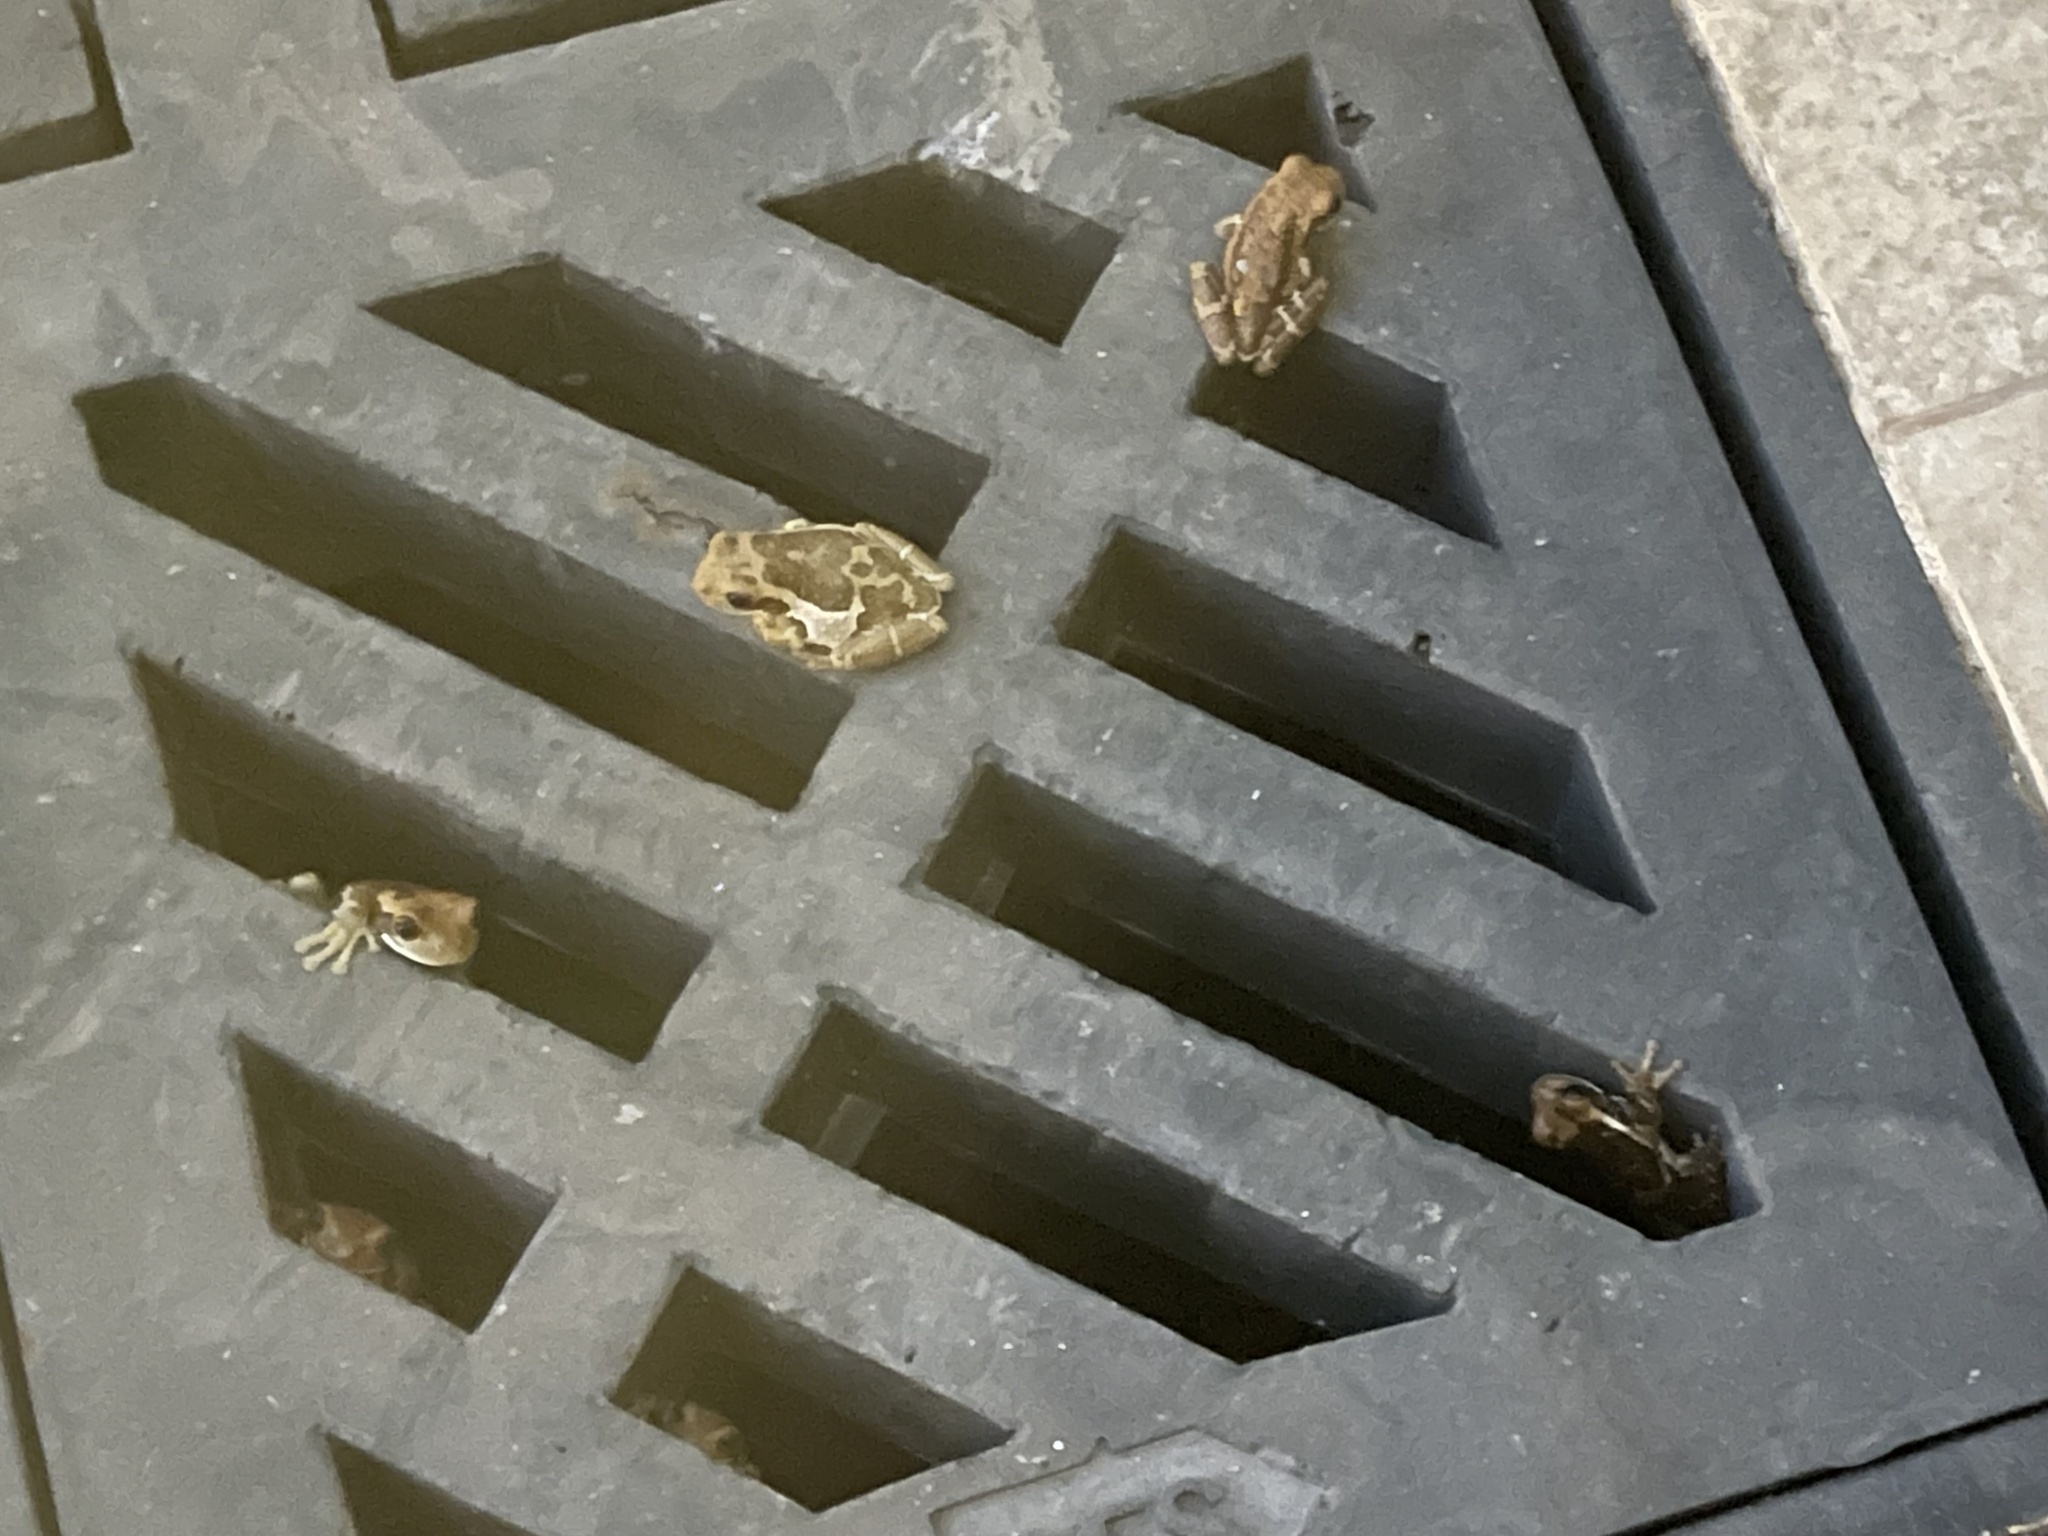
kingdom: Animalia
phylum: Chordata
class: Amphibia
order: Anura
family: Hylidae
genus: Trachycephalus
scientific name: Trachycephalus vermiculatus
